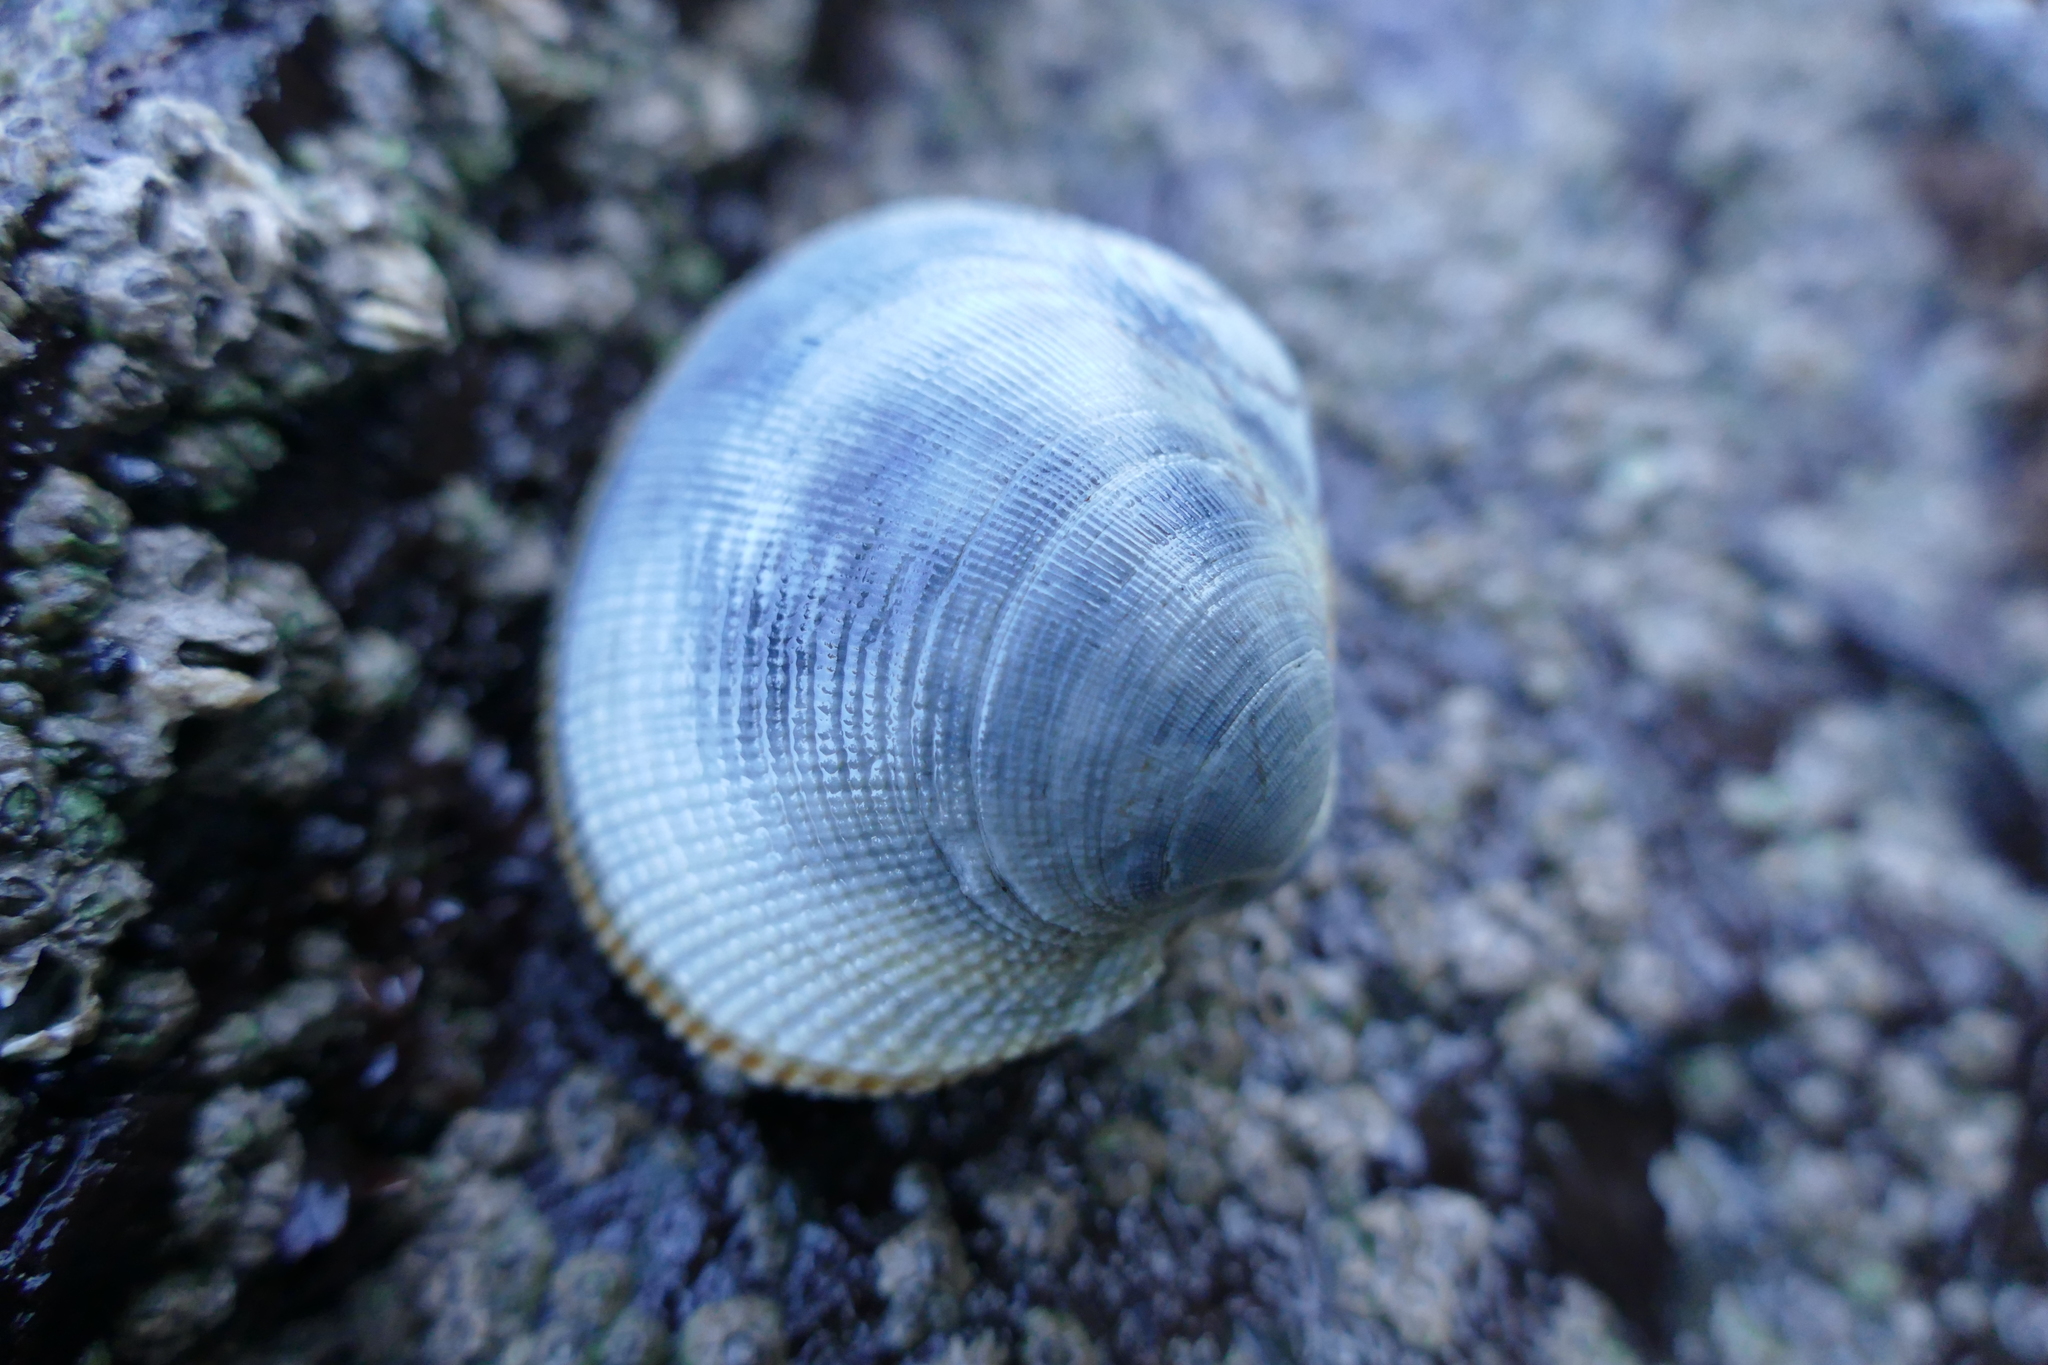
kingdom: Animalia
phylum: Mollusca
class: Bivalvia
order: Venerida
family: Veneridae
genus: Leukoma
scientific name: Leukoma staminea
